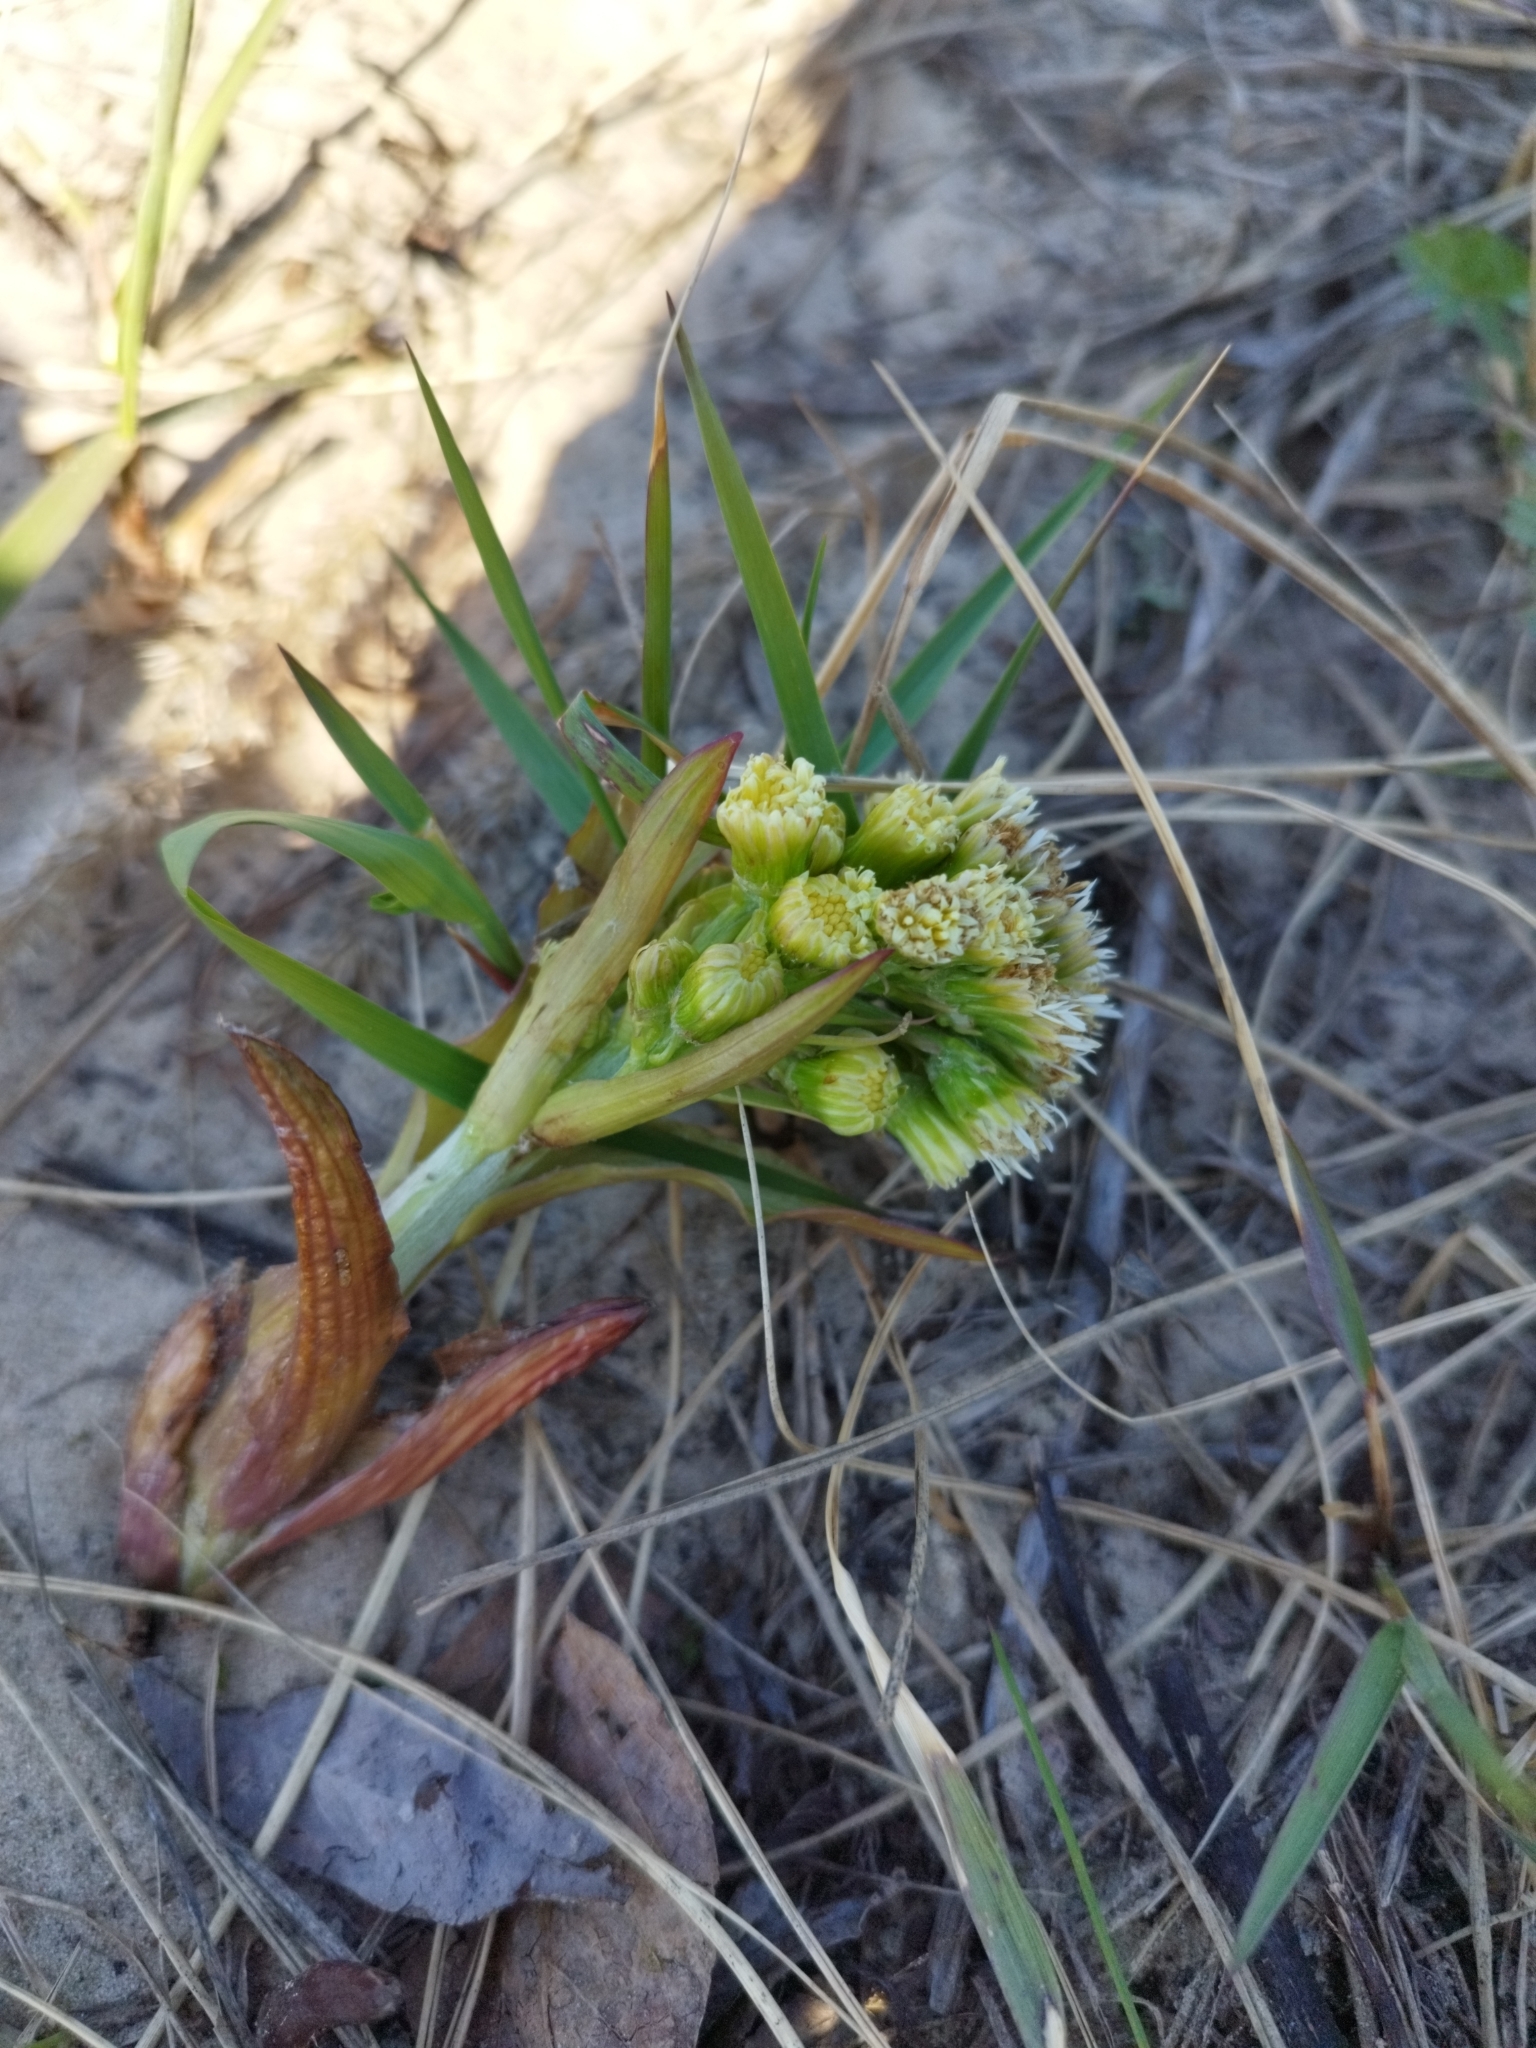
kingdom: Plantae
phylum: Tracheophyta
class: Magnoliopsida
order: Asterales
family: Asteraceae
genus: Petasites
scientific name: Petasites spurius
